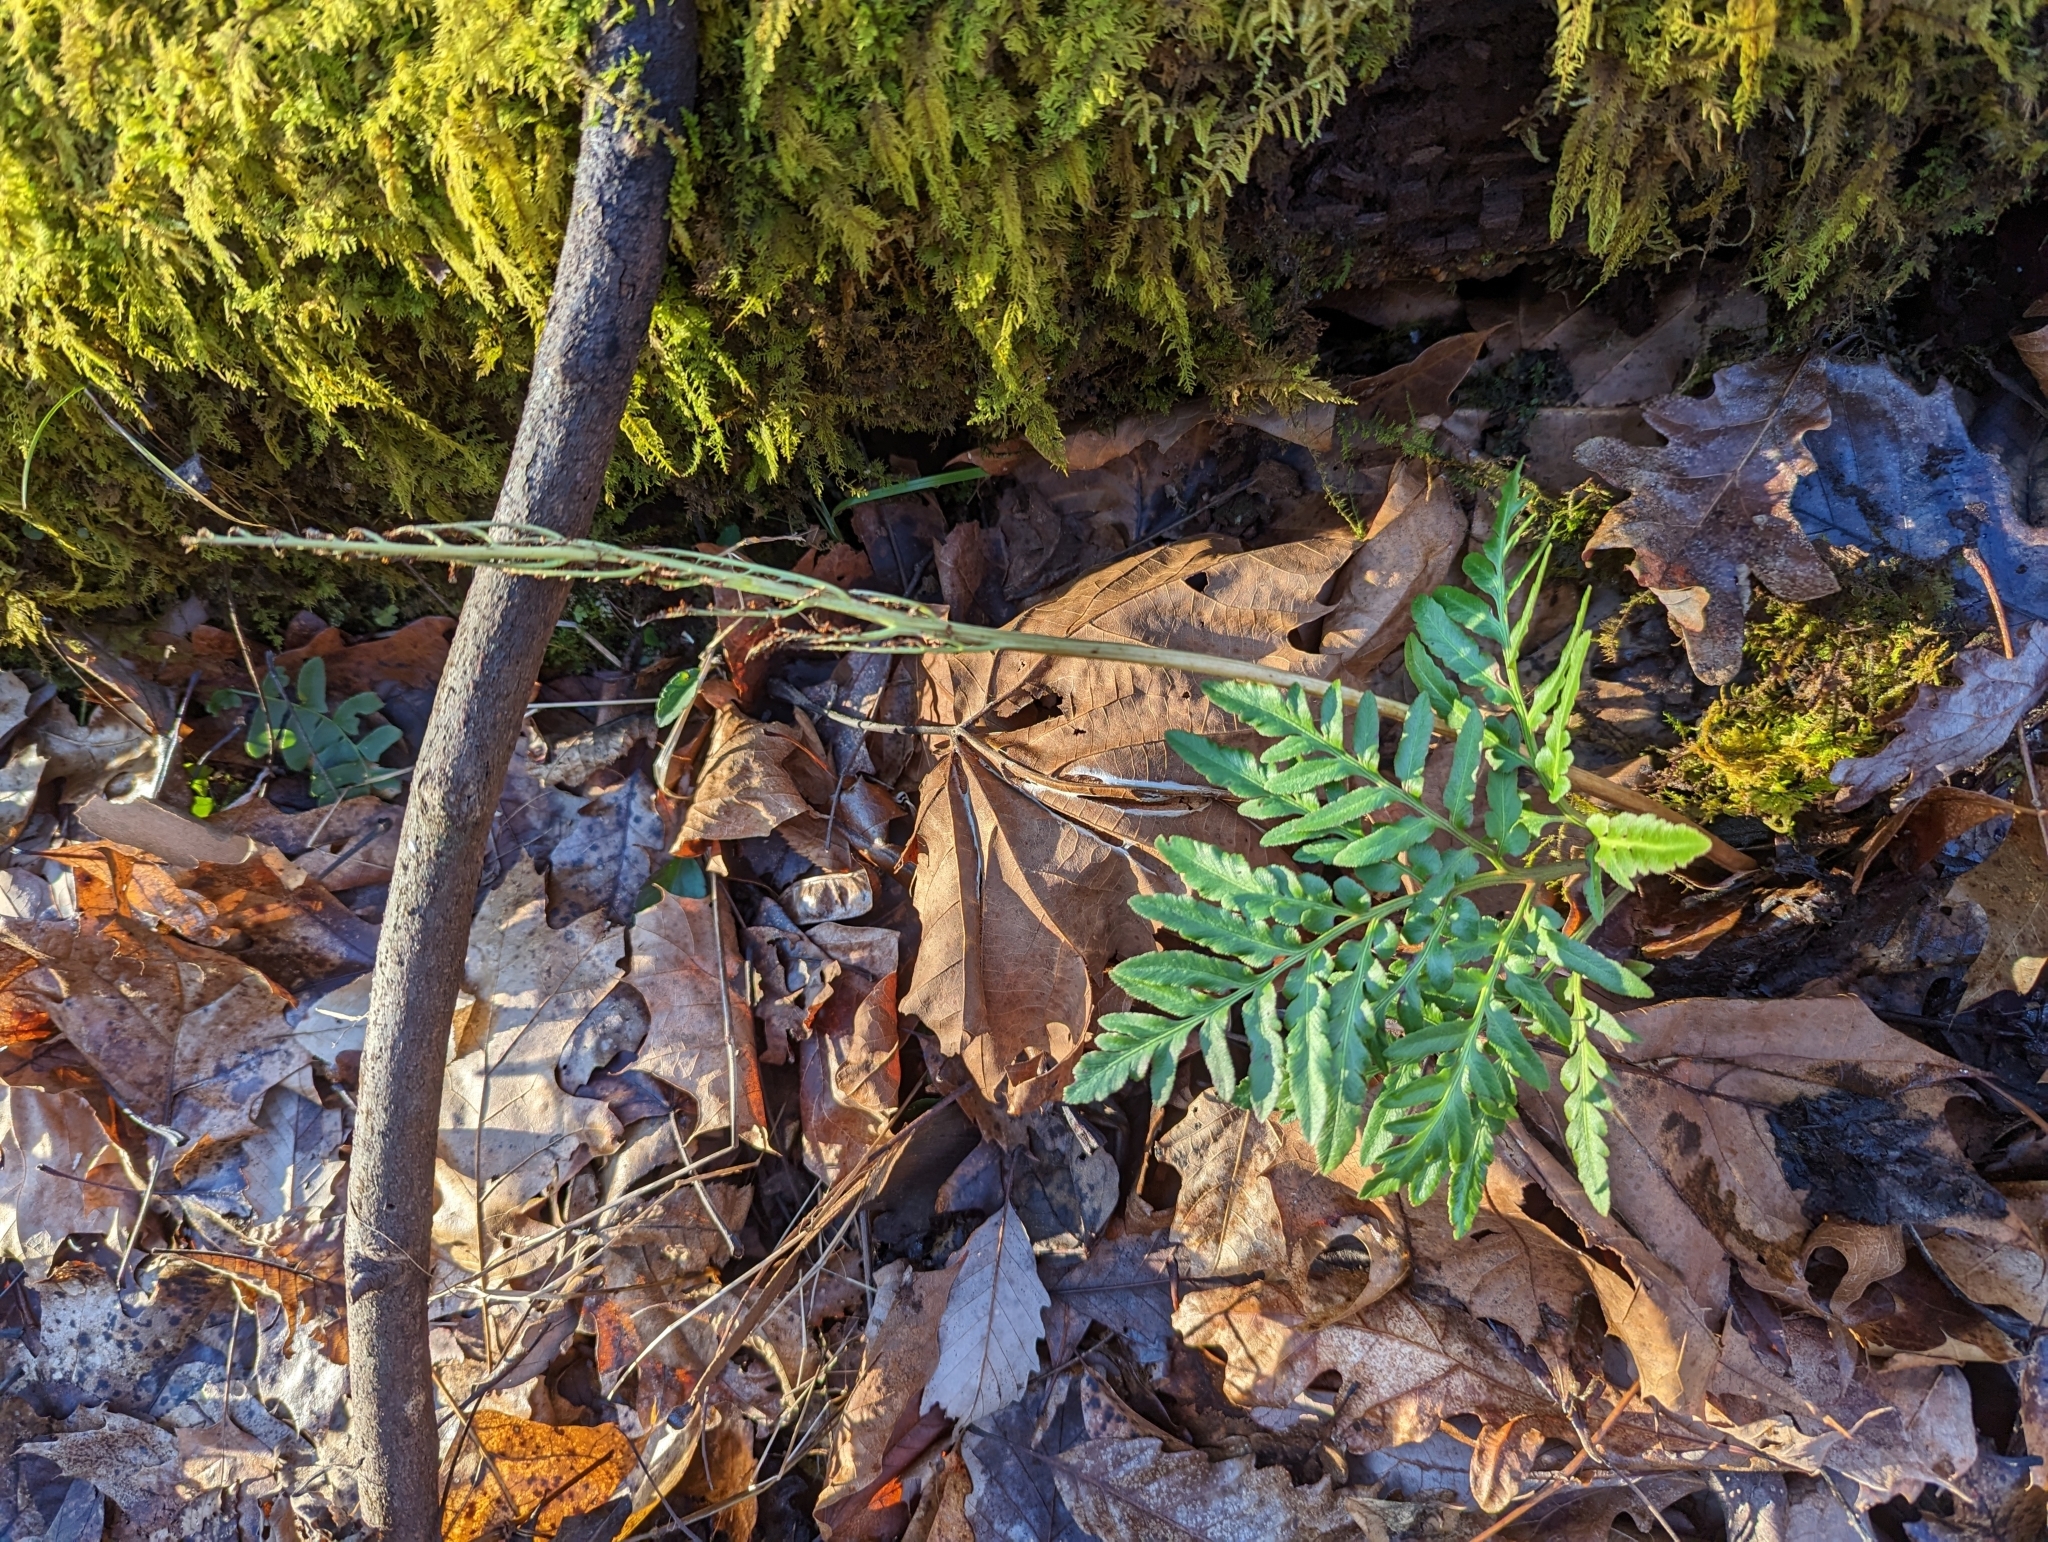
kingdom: Plantae
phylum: Tracheophyta
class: Polypodiopsida
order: Ophioglossales
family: Ophioglossaceae
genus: Sceptridium
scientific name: Sceptridium dissectum
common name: Cut-leaved grapefern
